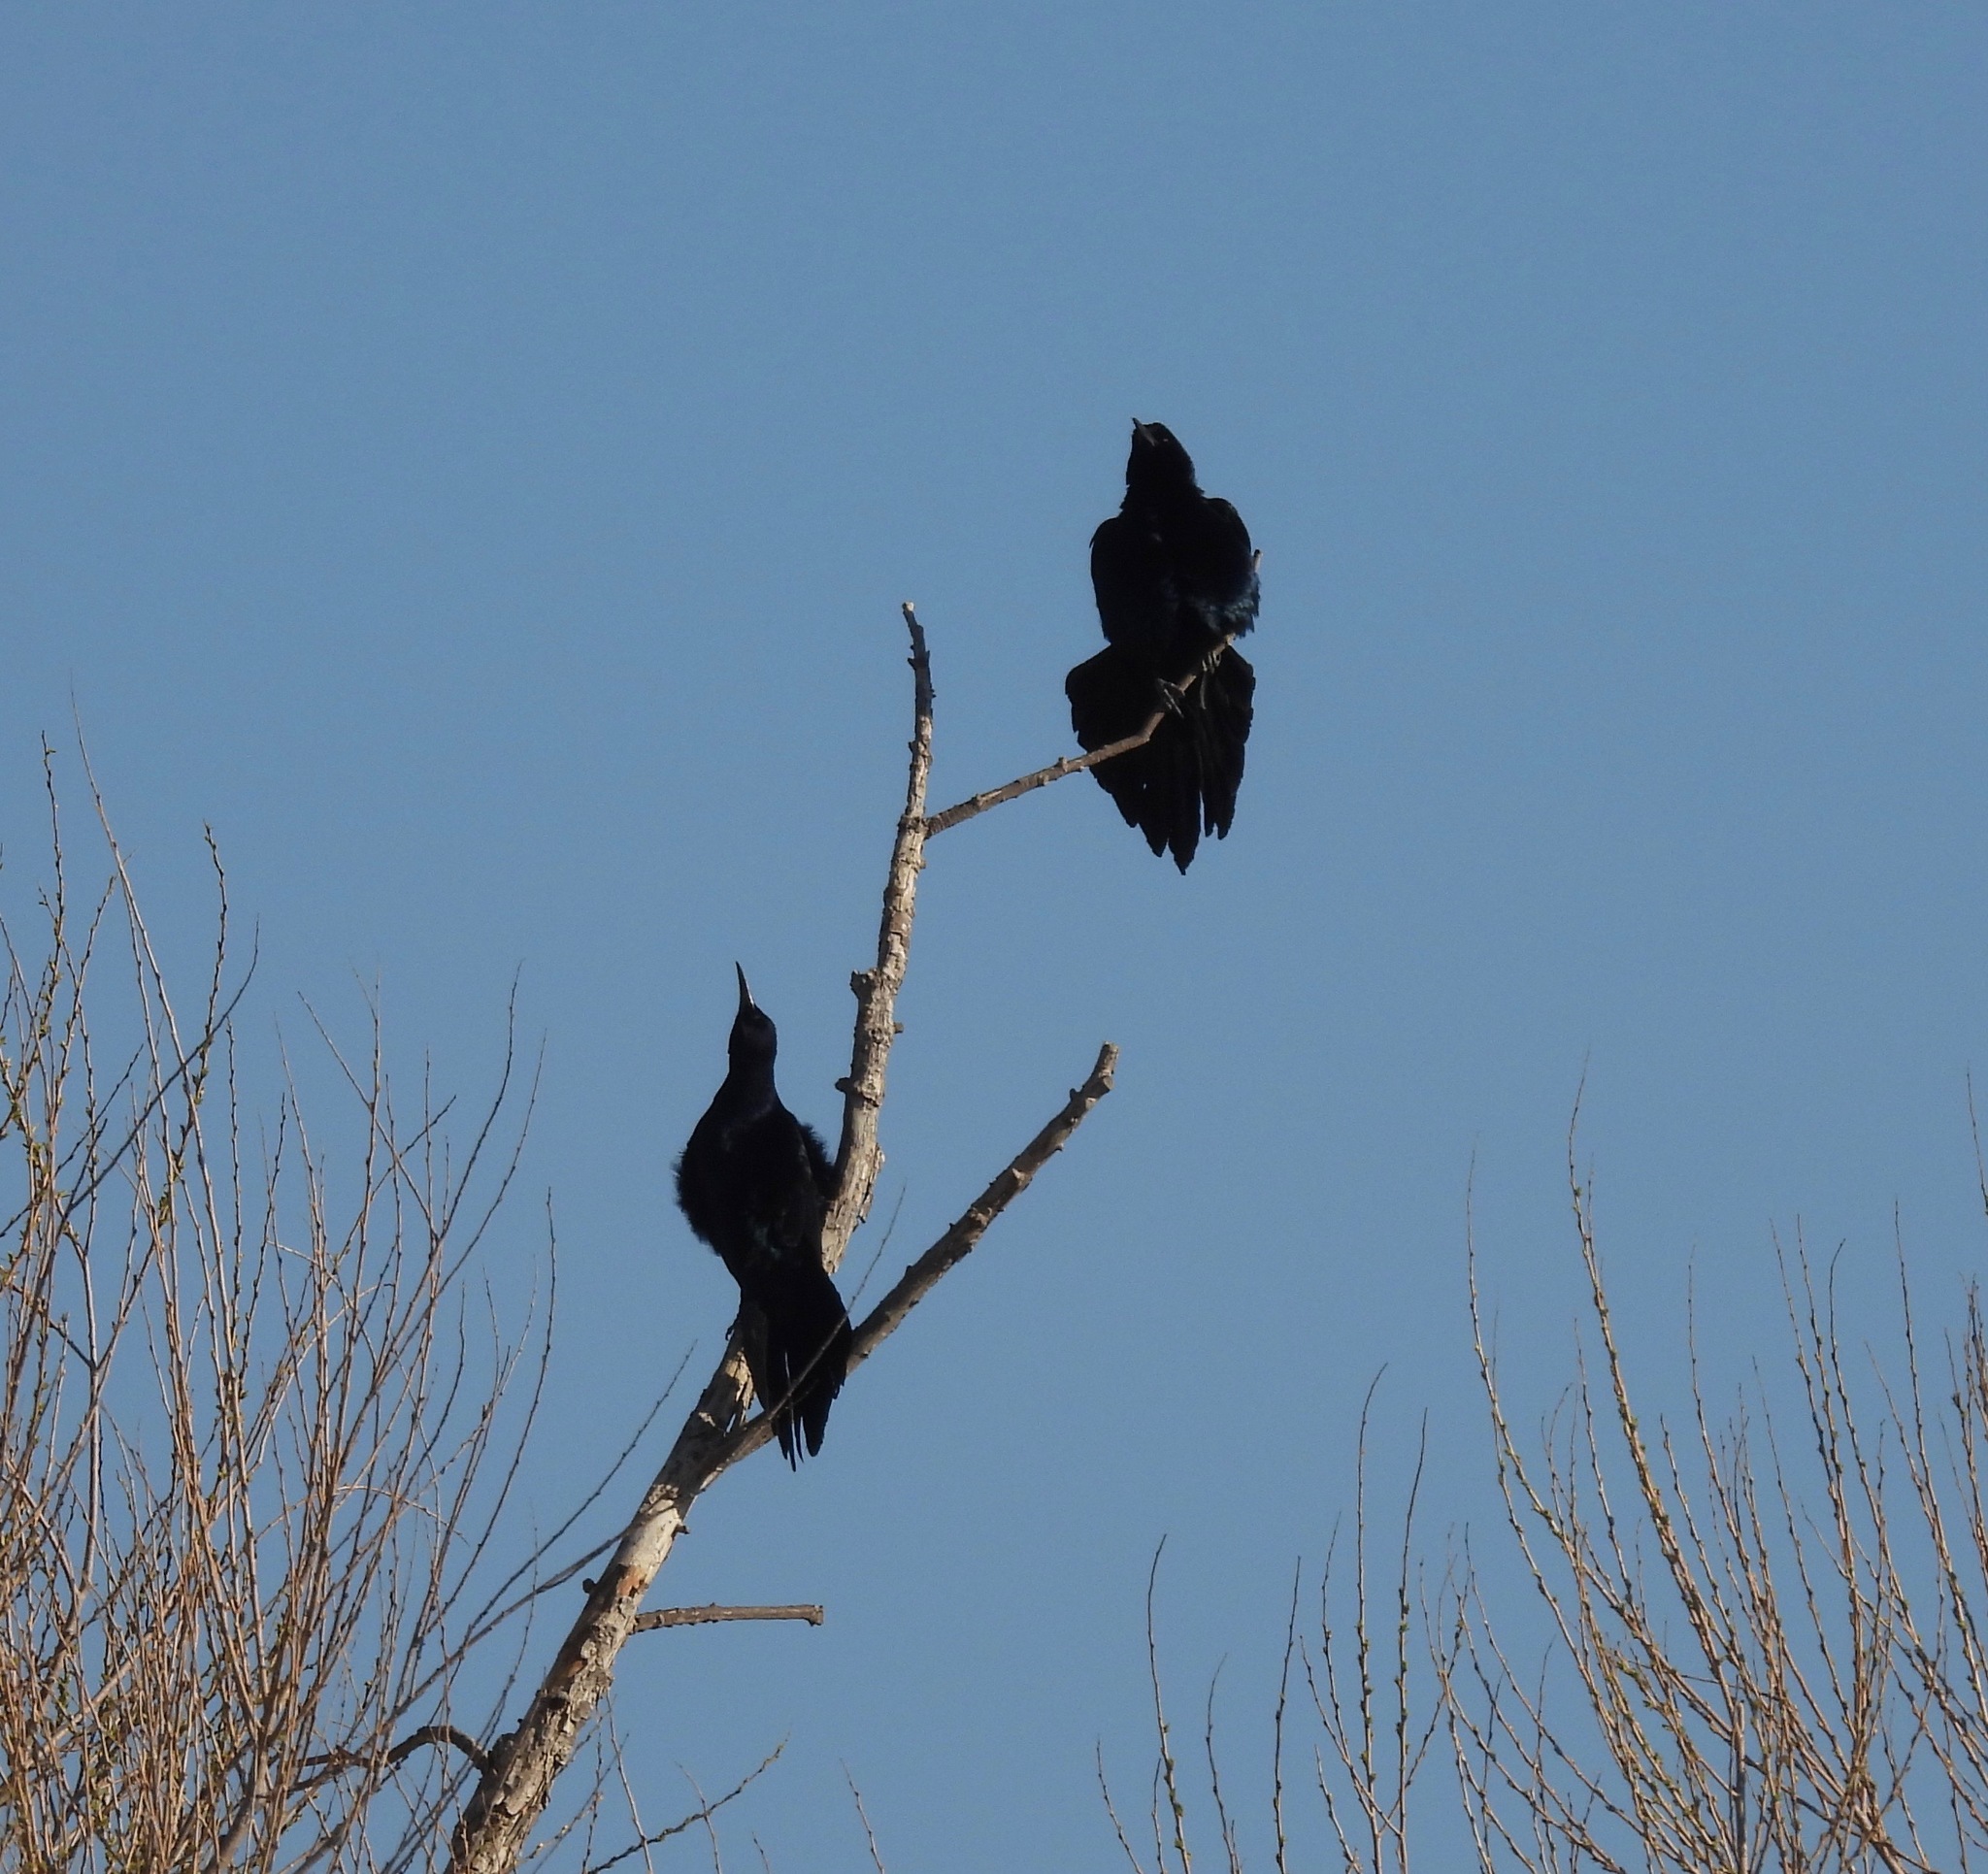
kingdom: Animalia
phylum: Chordata
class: Aves
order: Passeriformes
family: Icteridae
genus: Quiscalus
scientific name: Quiscalus mexicanus
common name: Great-tailed grackle
